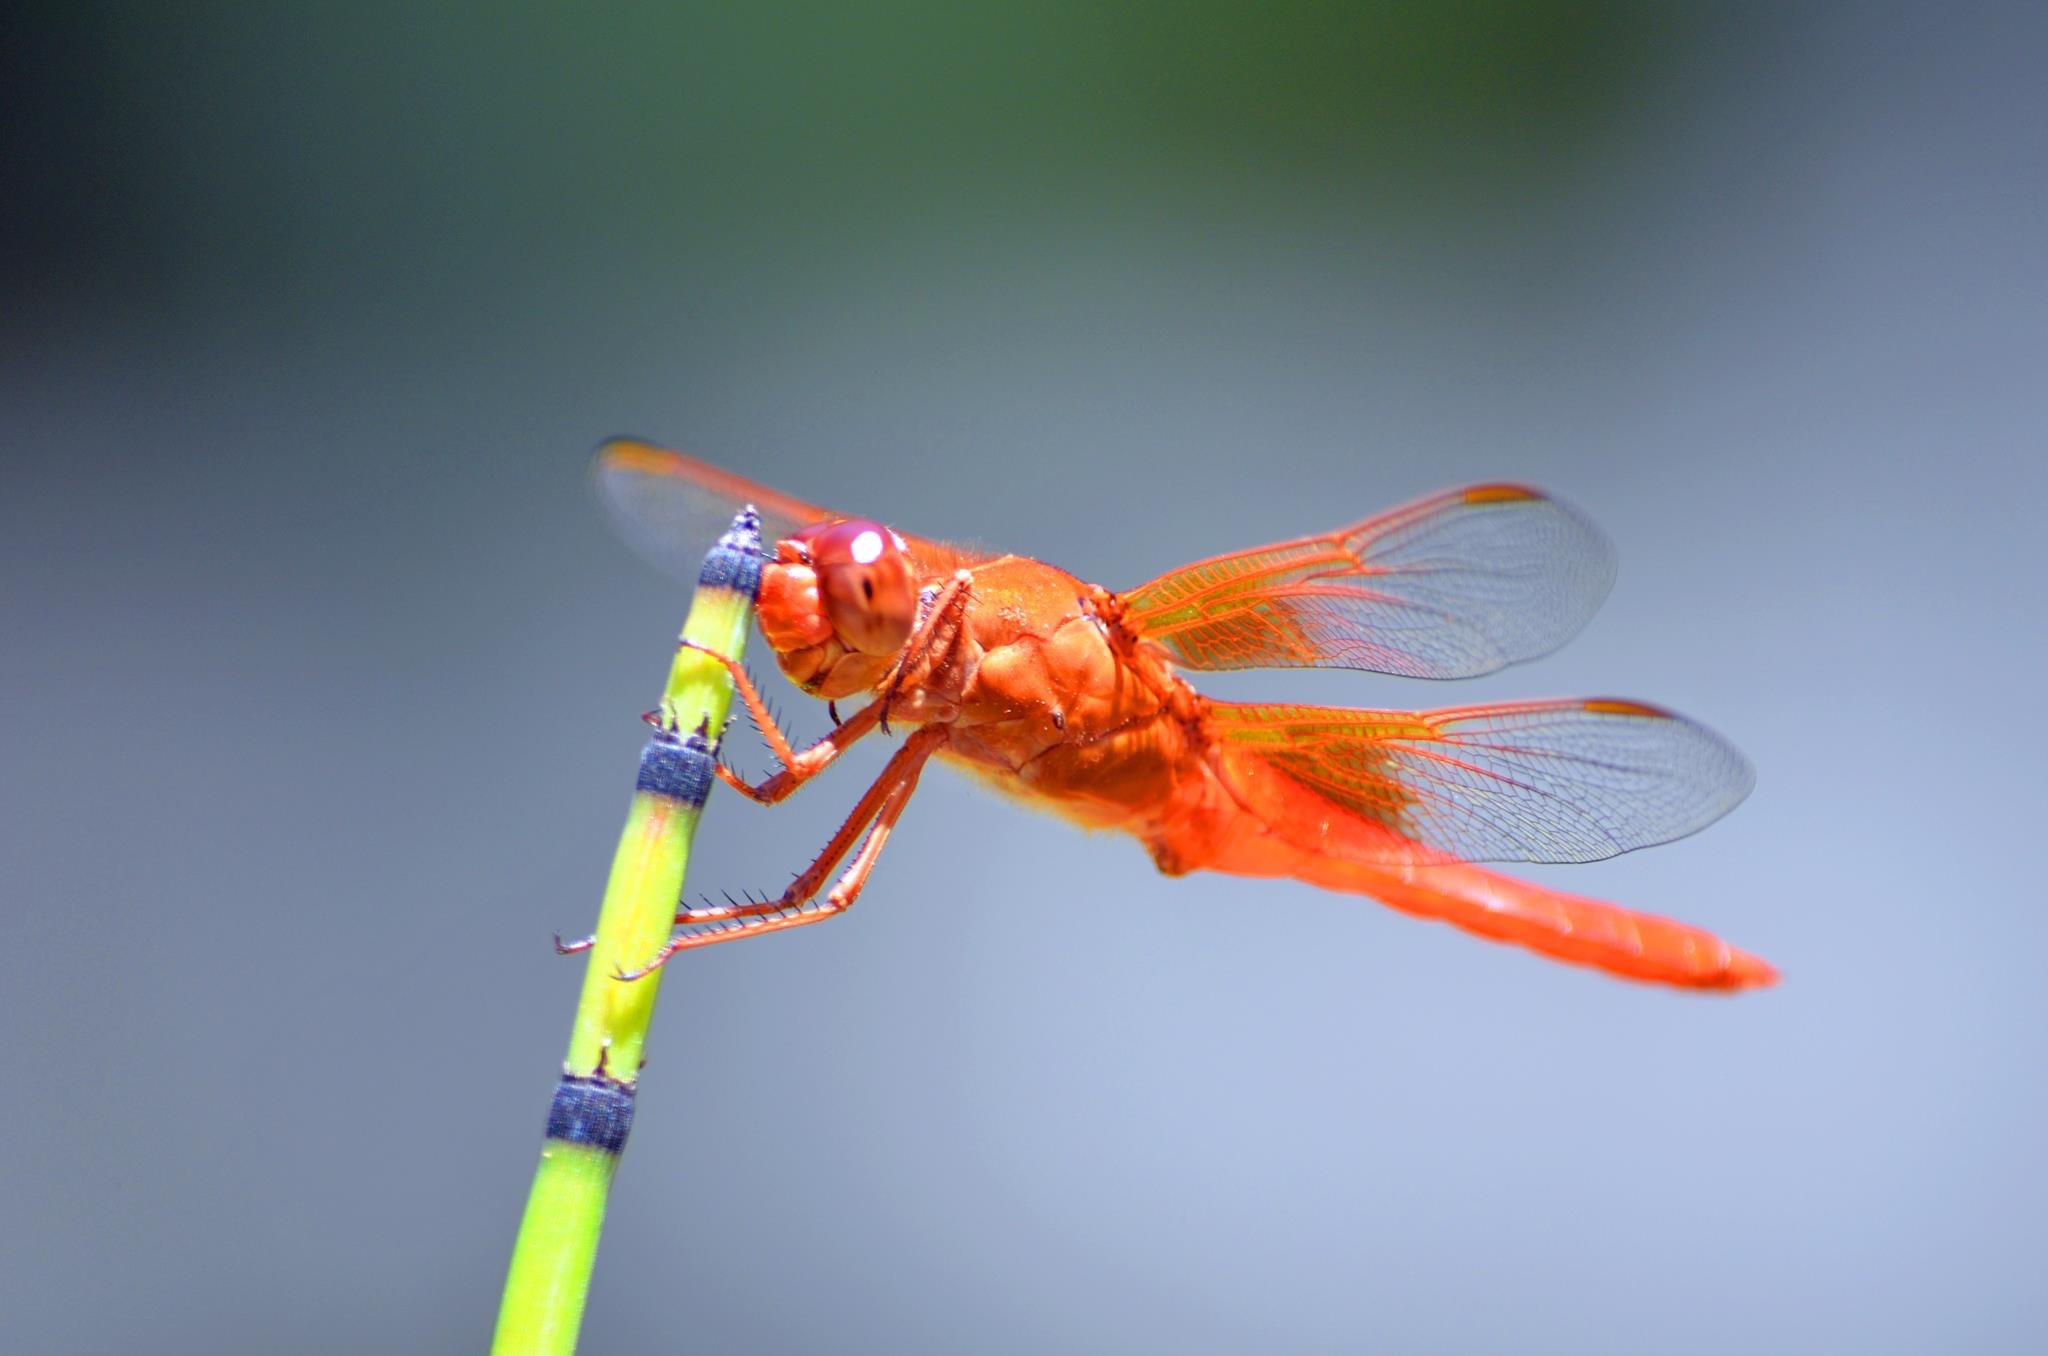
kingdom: Animalia
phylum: Arthropoda
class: Insecta
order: Odonata
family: Libellulidae
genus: Libellula
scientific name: Libellula saturata
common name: Flame skimmer
